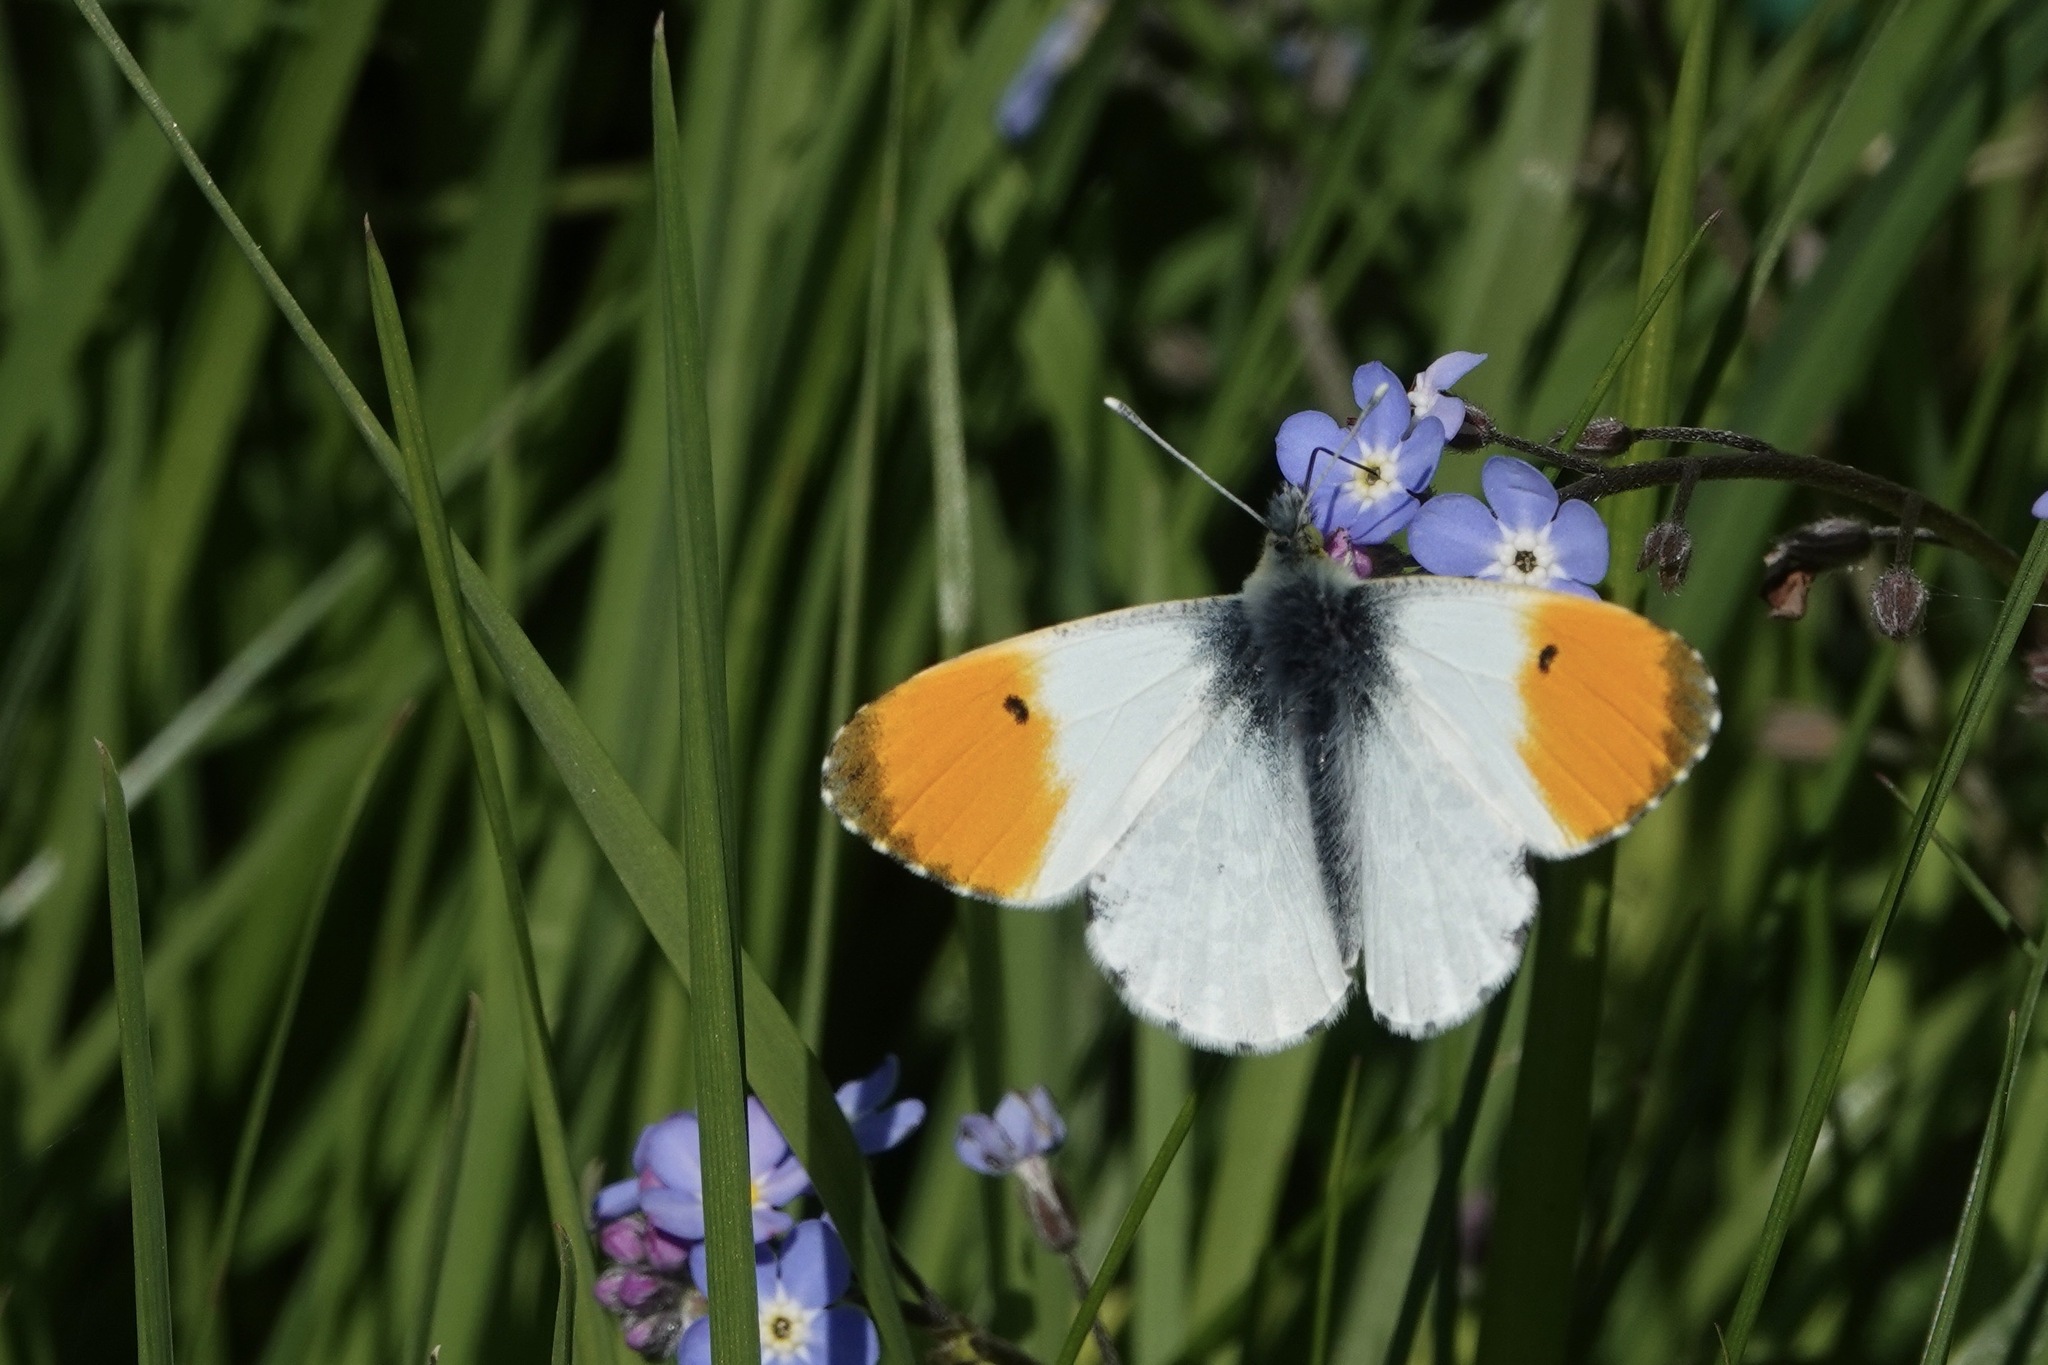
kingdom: Animalia
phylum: Arthropoda
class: Insecta
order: Lepidoptera
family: Pieridae
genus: Anthocharis
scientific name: Anthocharis cardamines
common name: Orange-tip
